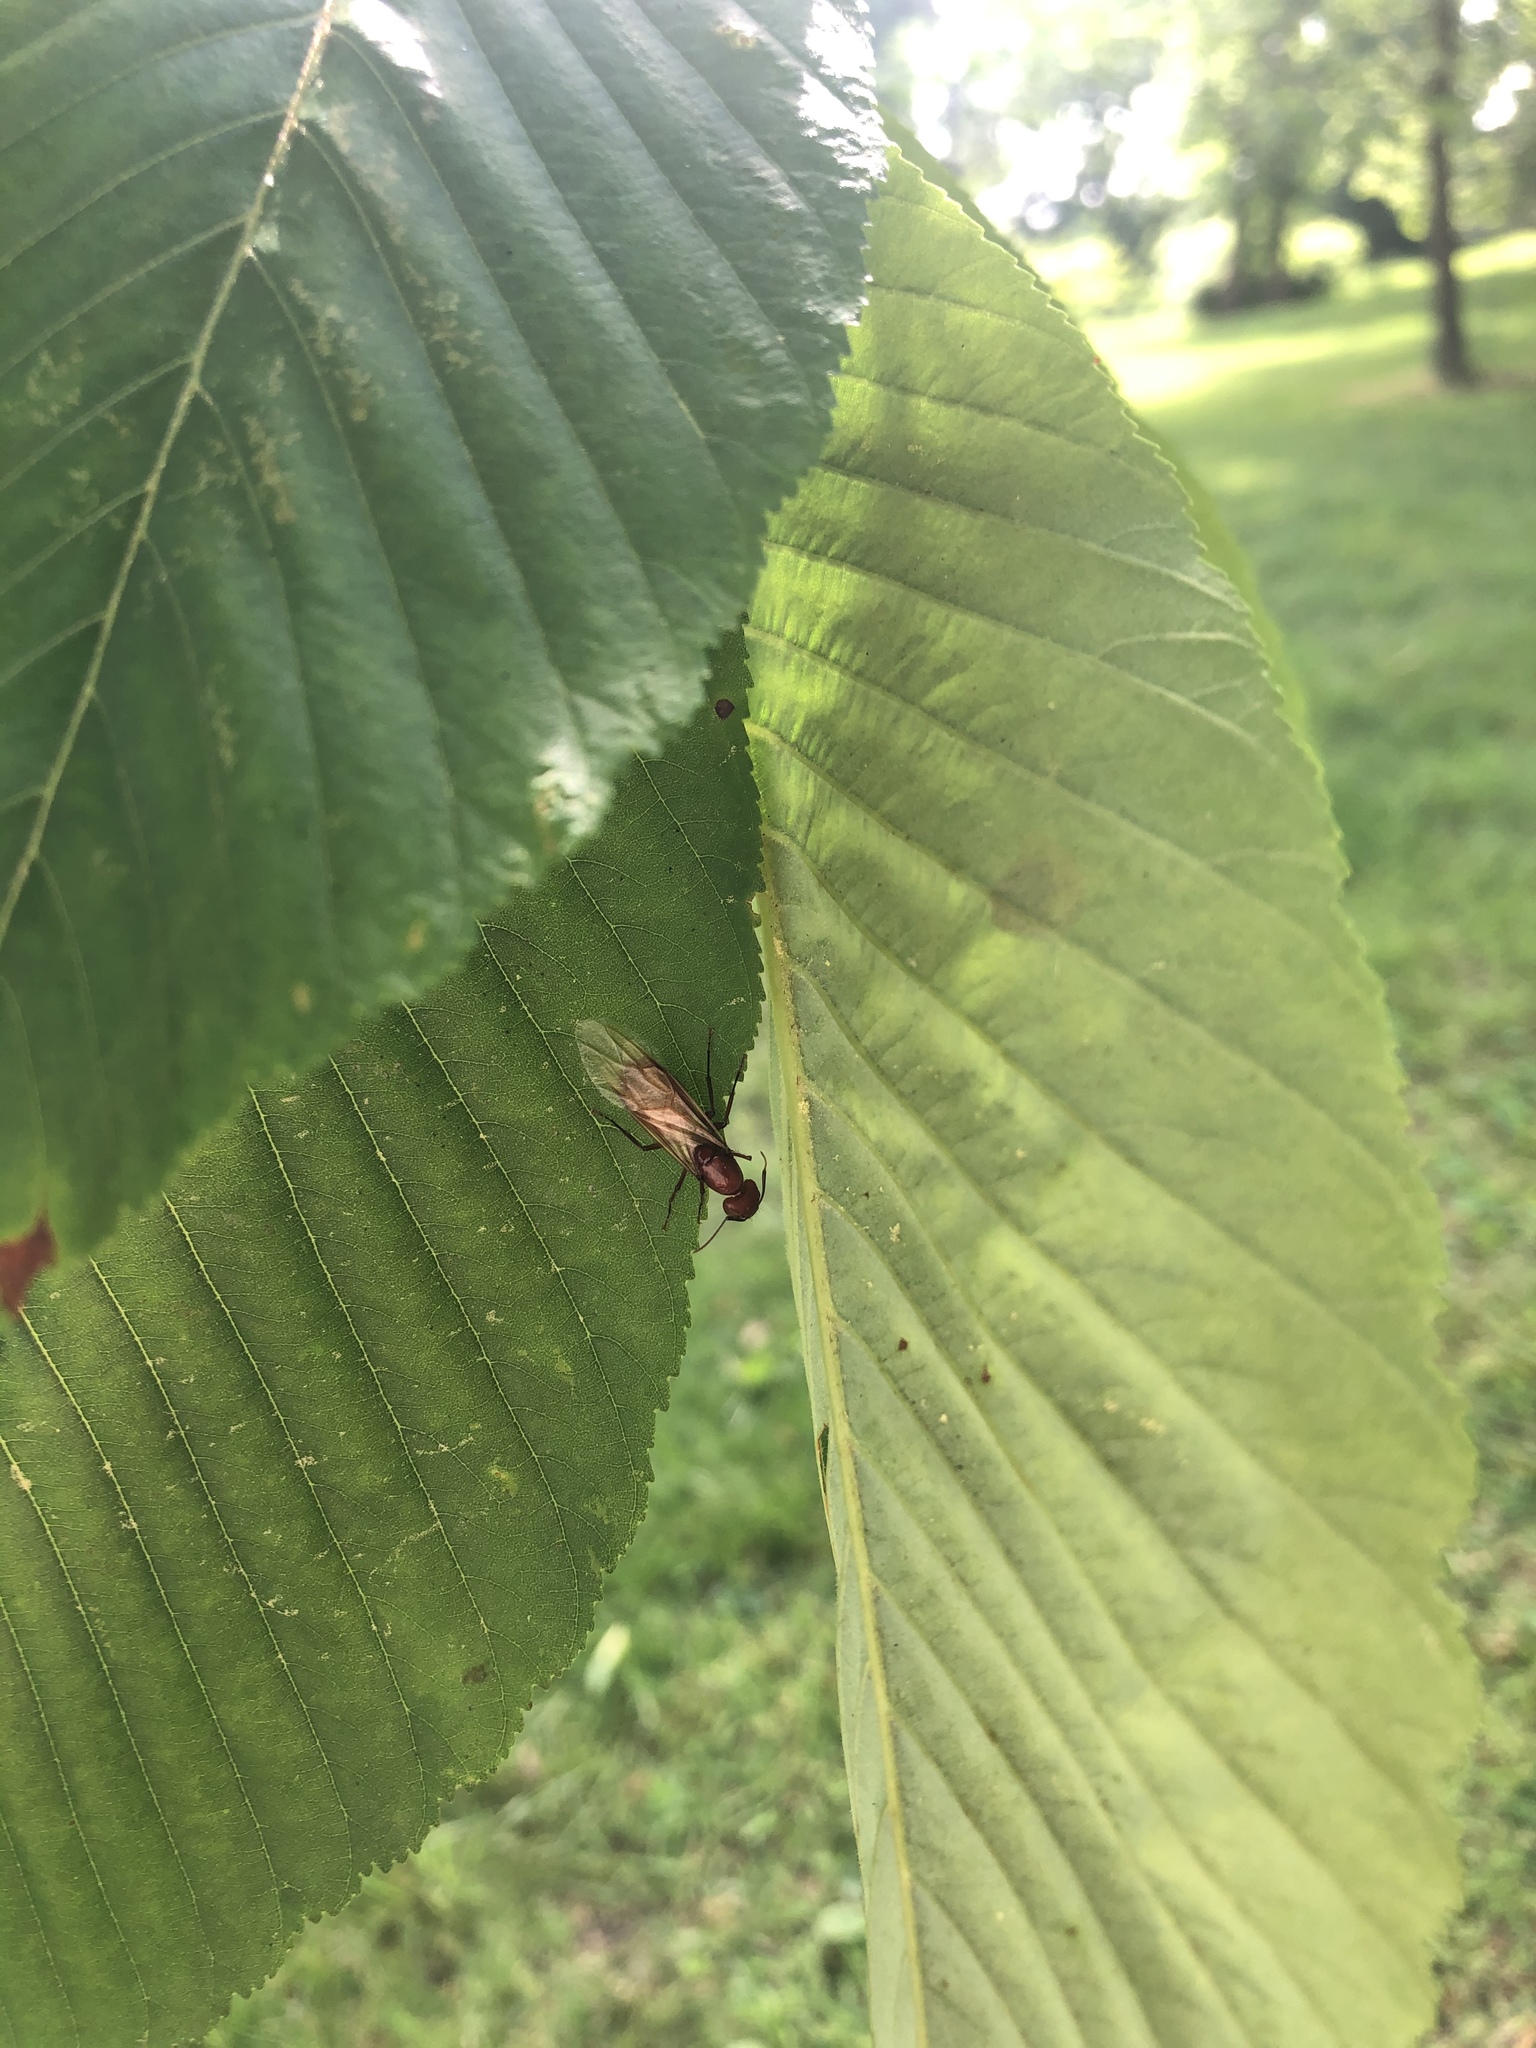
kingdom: Animalia
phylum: Arthropoda
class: Insecta
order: Hymenoptera
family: Formicidae
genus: Camponotus
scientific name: Camponotus castaneus
